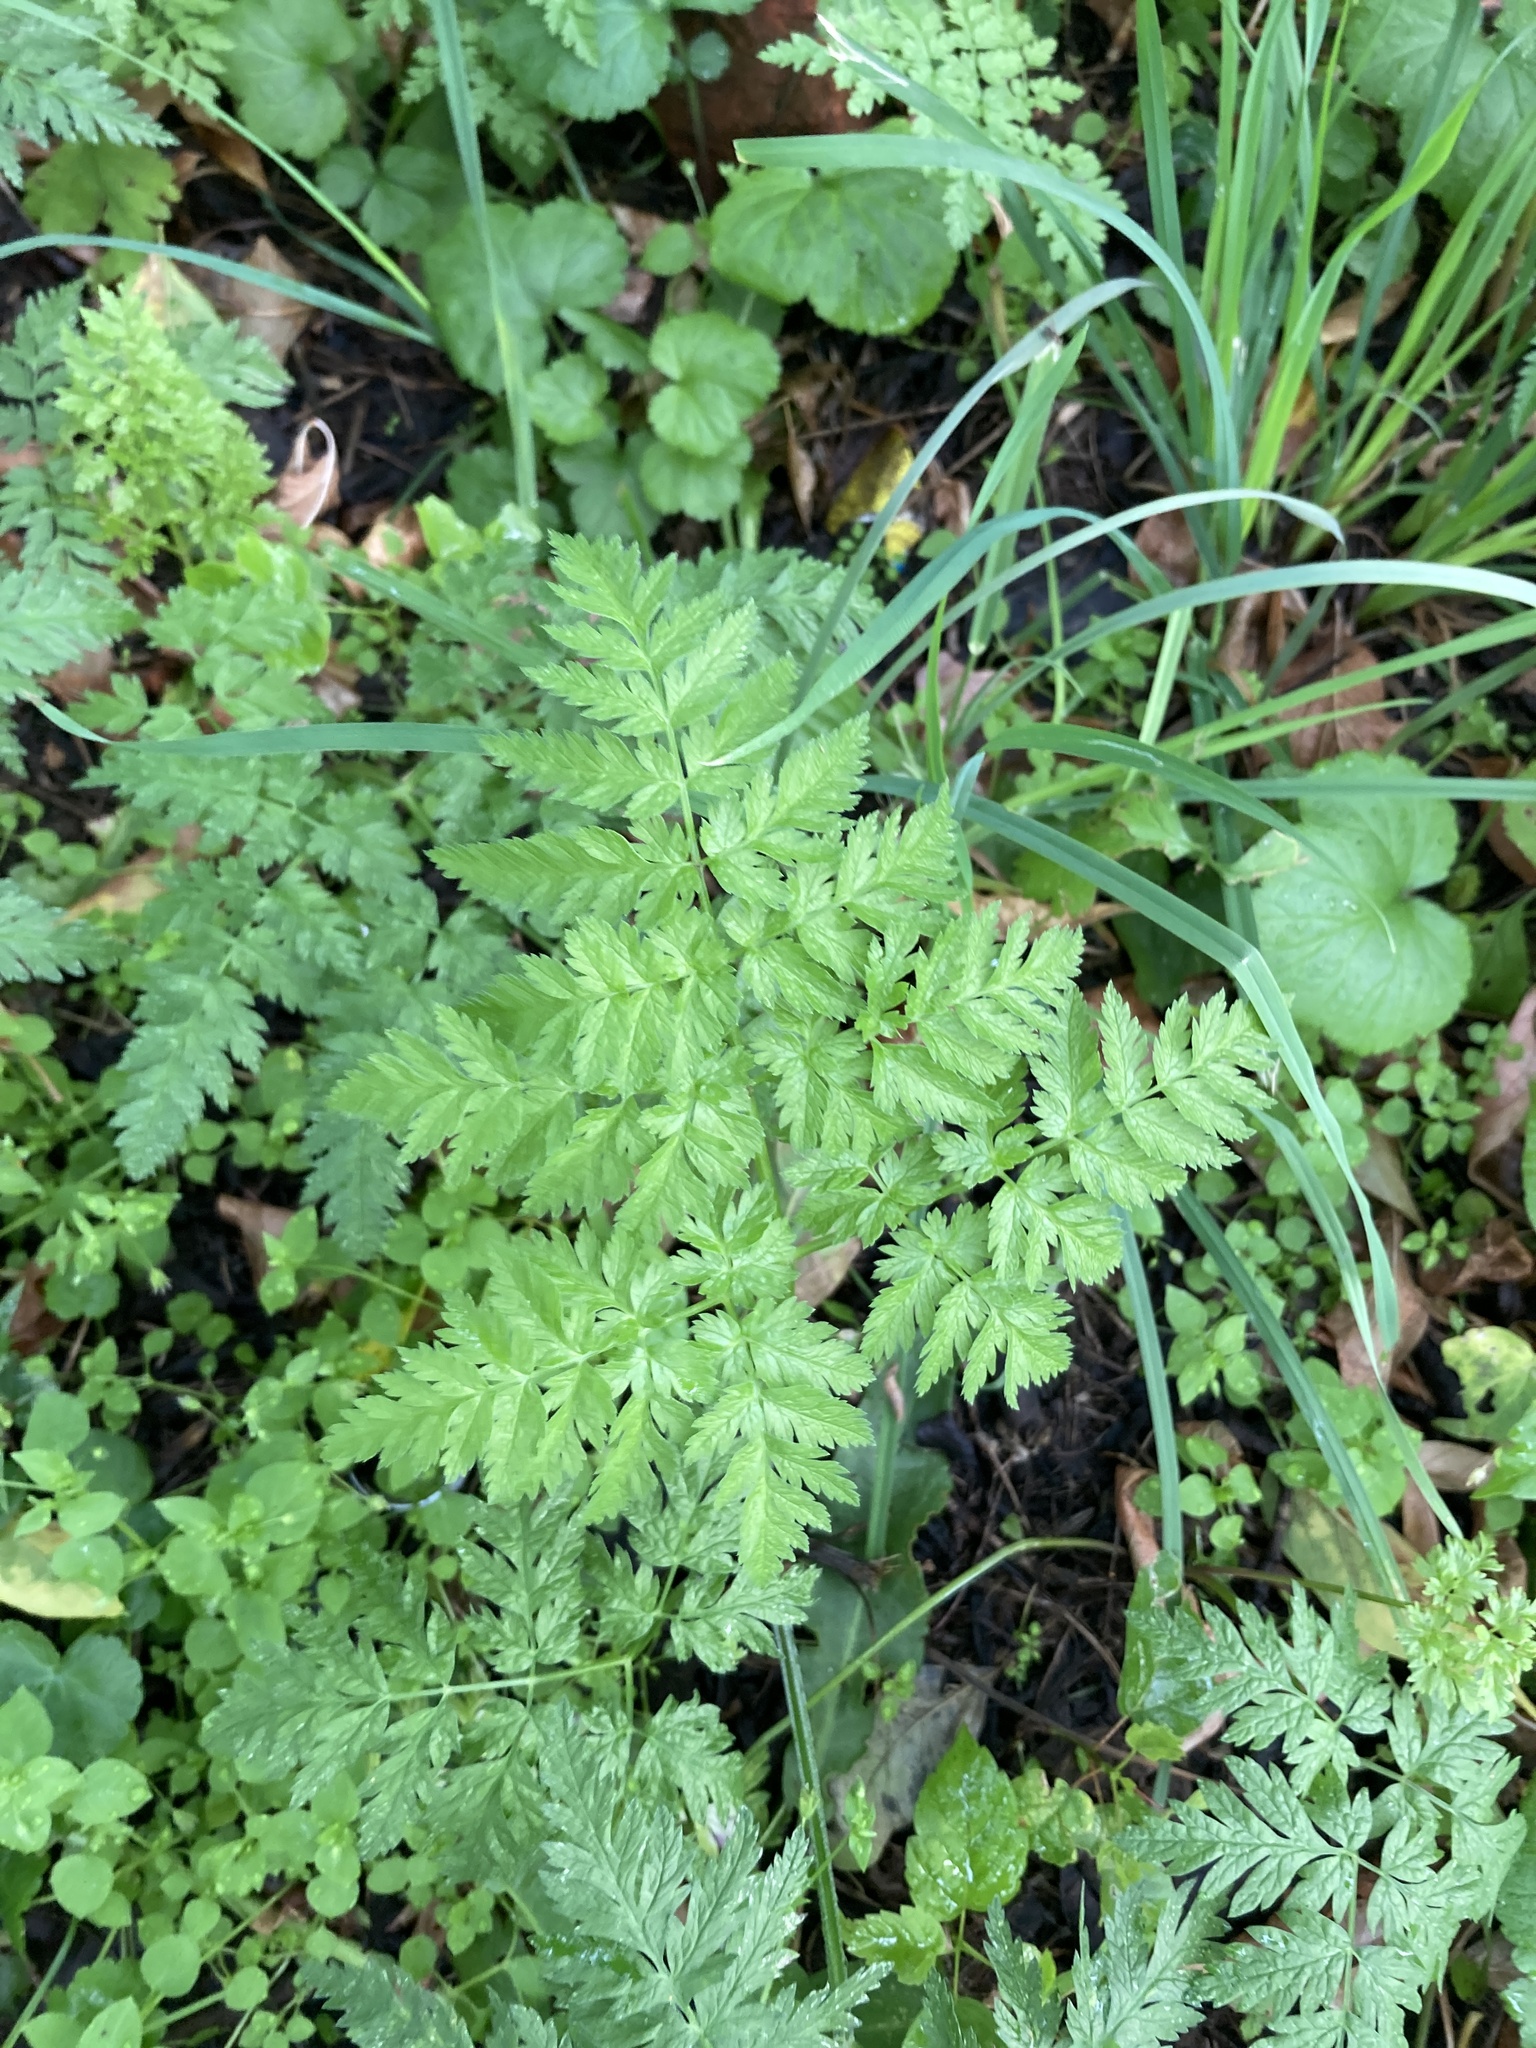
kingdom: Plantae
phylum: Tracheophyta
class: Magnoliopsida
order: Apiales
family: Apiaceae
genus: Anthriscus
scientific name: Anthriscus sylvestris
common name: Cow parsley
